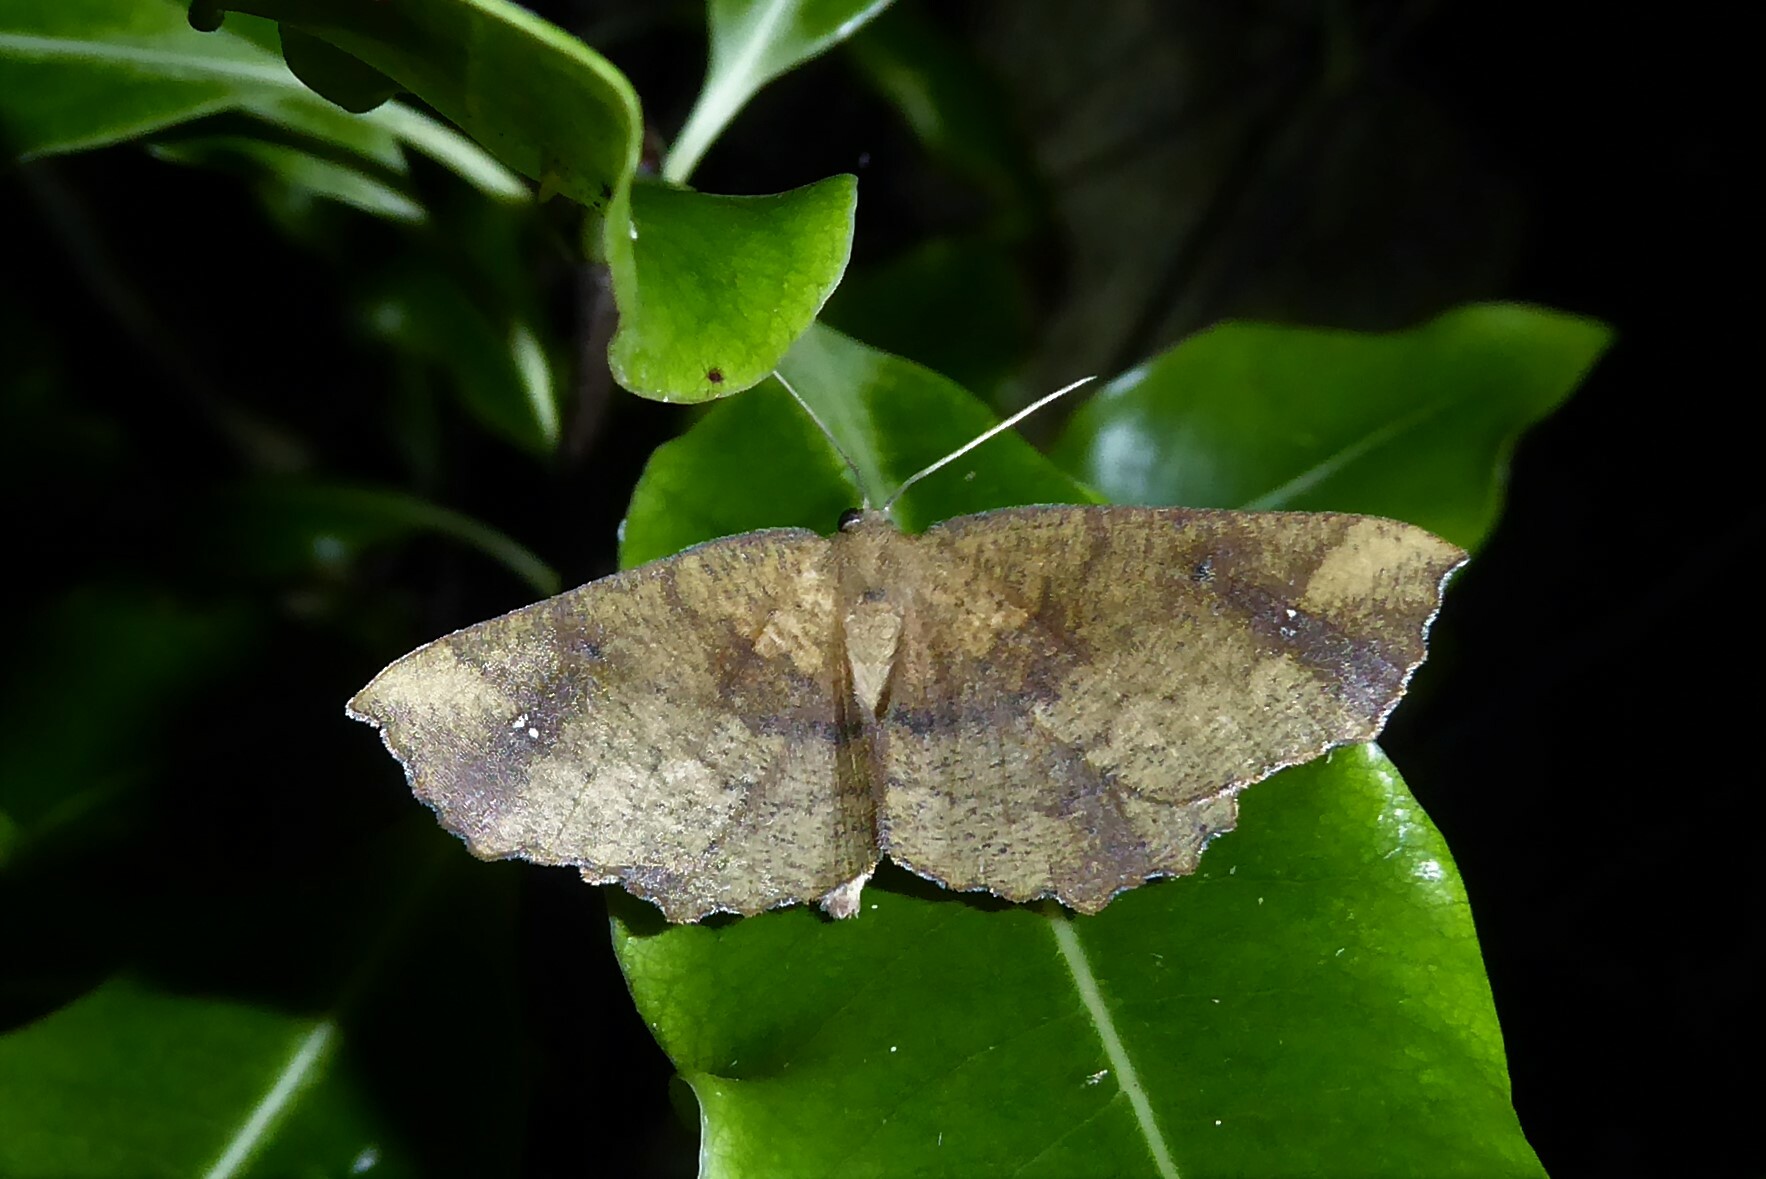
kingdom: Animalia
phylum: Arthropoda
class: Insecta
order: Lepidoptera
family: Geometridae
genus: Xyridacma
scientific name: Xyridacma ustaria
